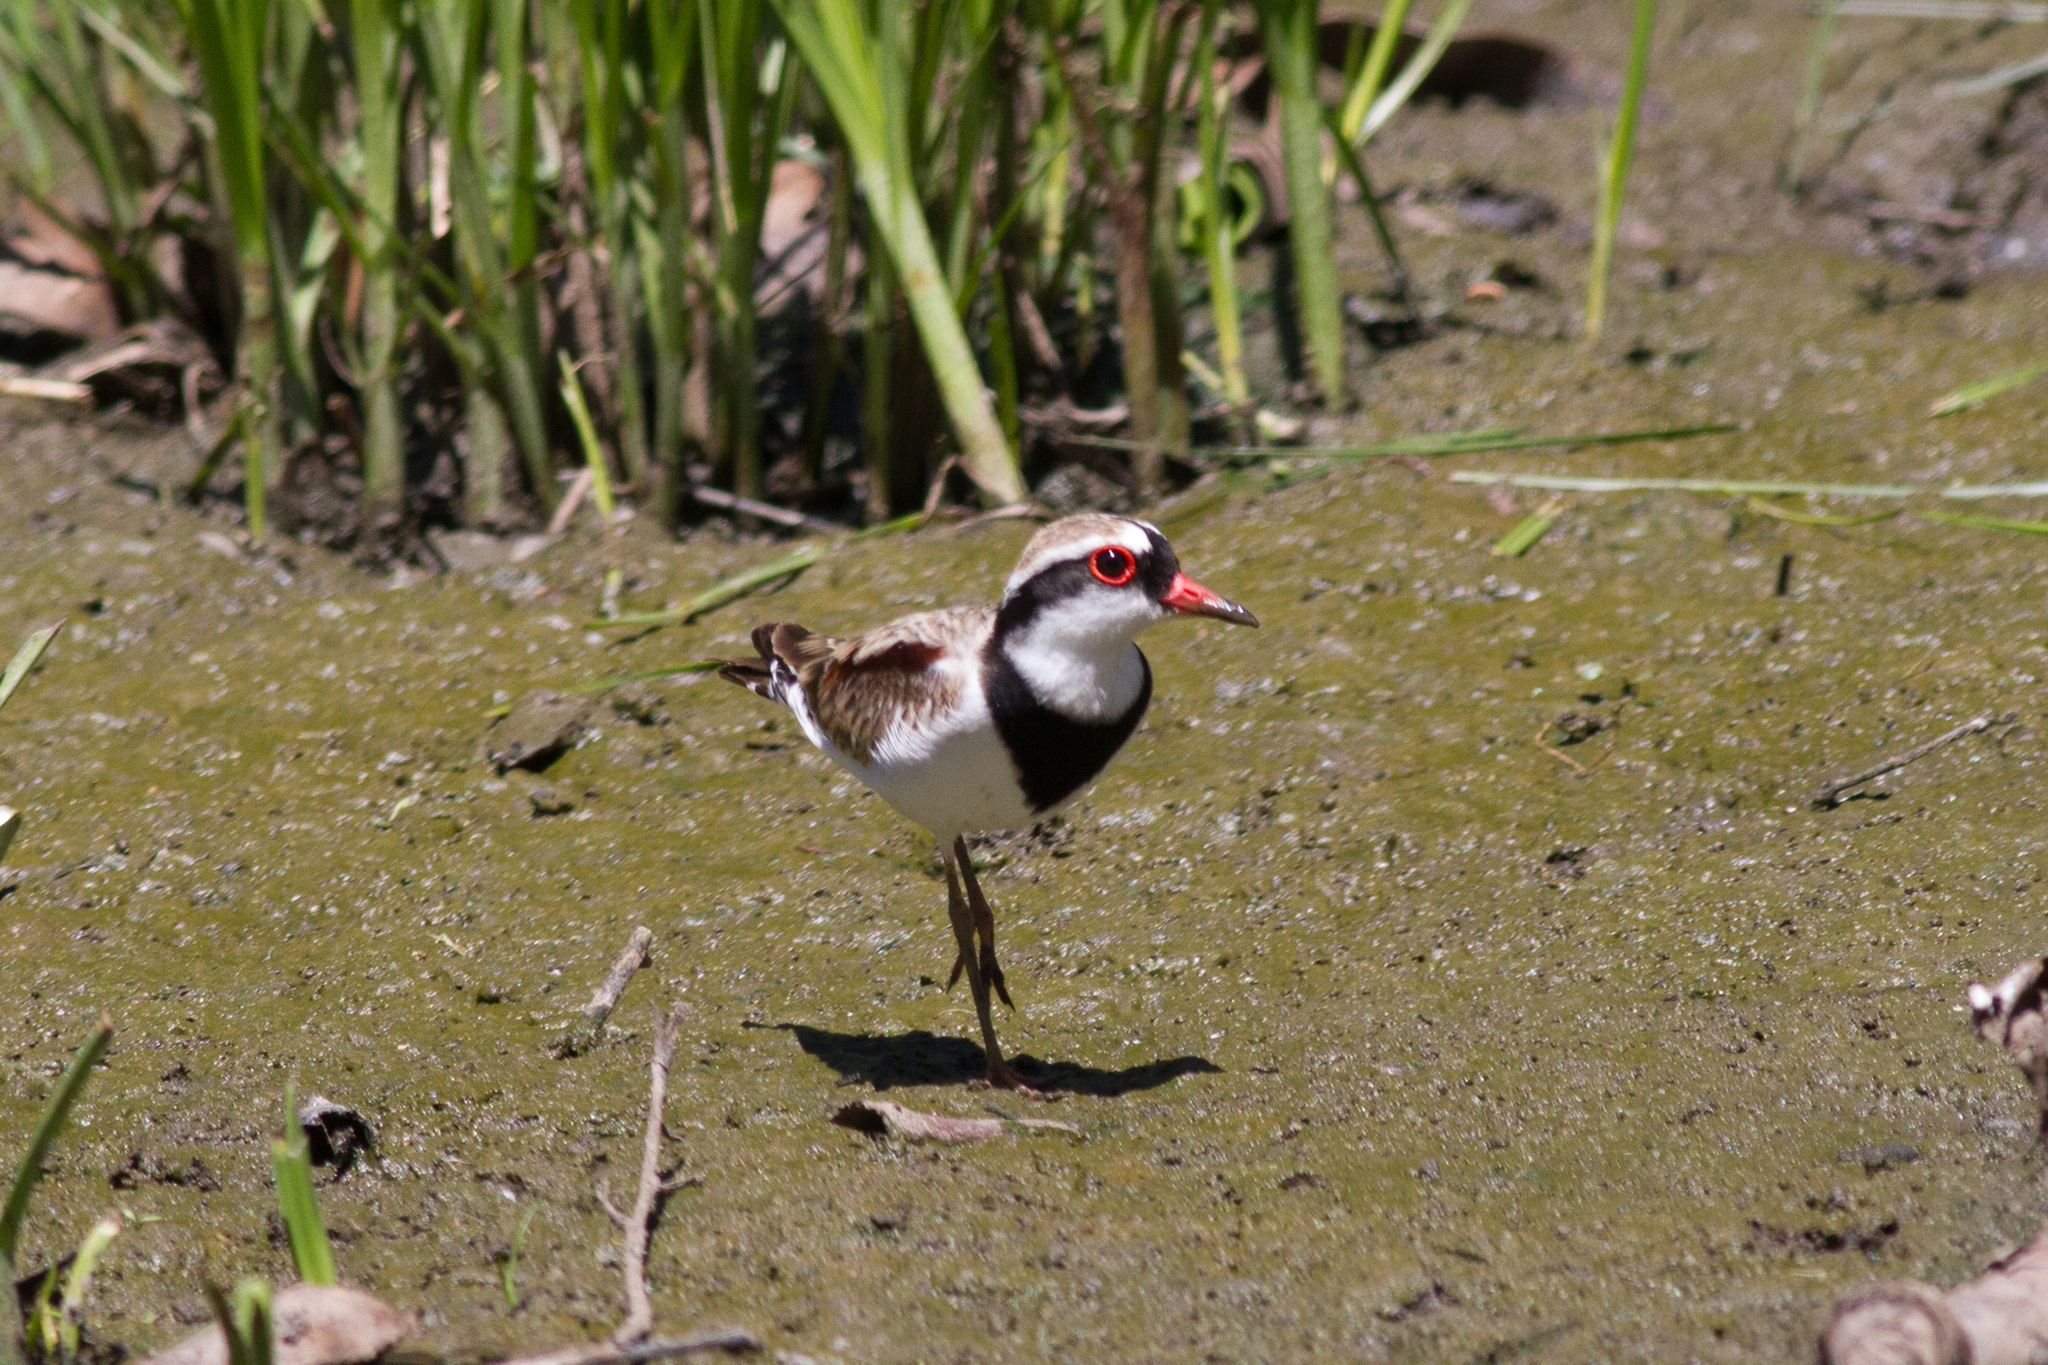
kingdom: Animalia
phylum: Chordata
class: Aves
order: Charadriiformes
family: Charadriidae
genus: Elseyornis
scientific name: Elseyornis melanops
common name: Black-fronted dotterel
